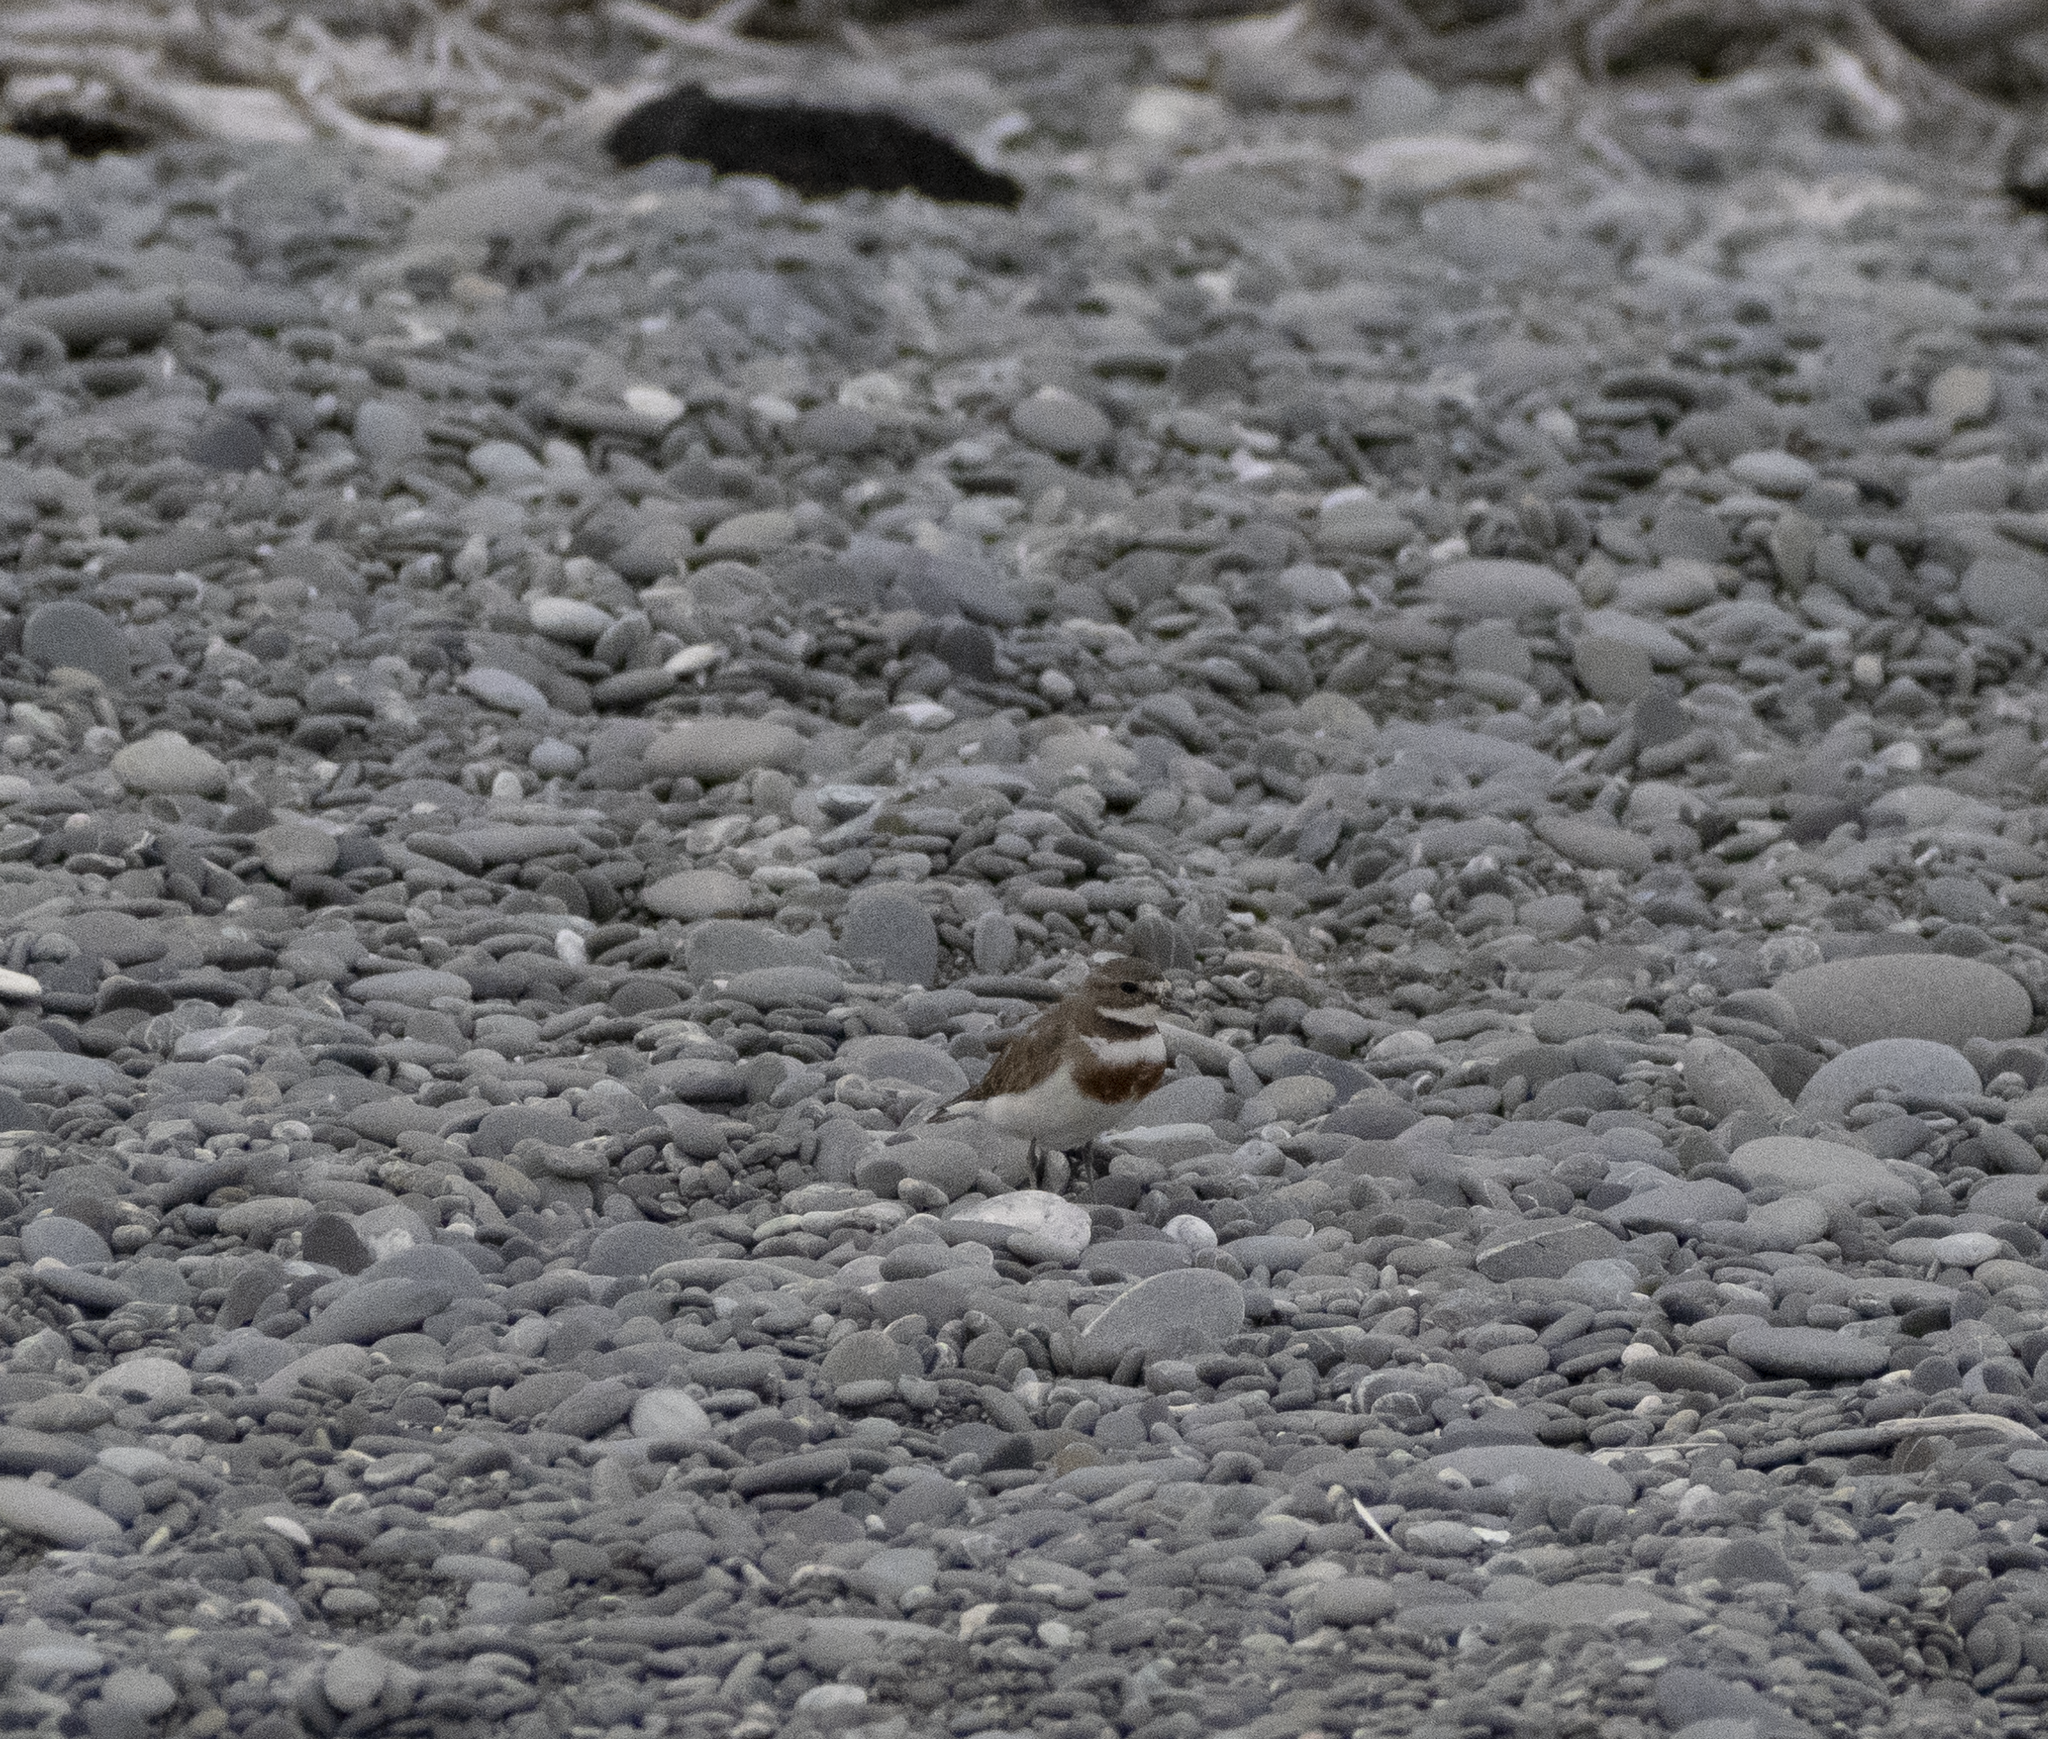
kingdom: Animalia
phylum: Chordata
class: Aves
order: Charadriiformes
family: Charadriidae
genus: Anarhynchus
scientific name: Anarhynchus
